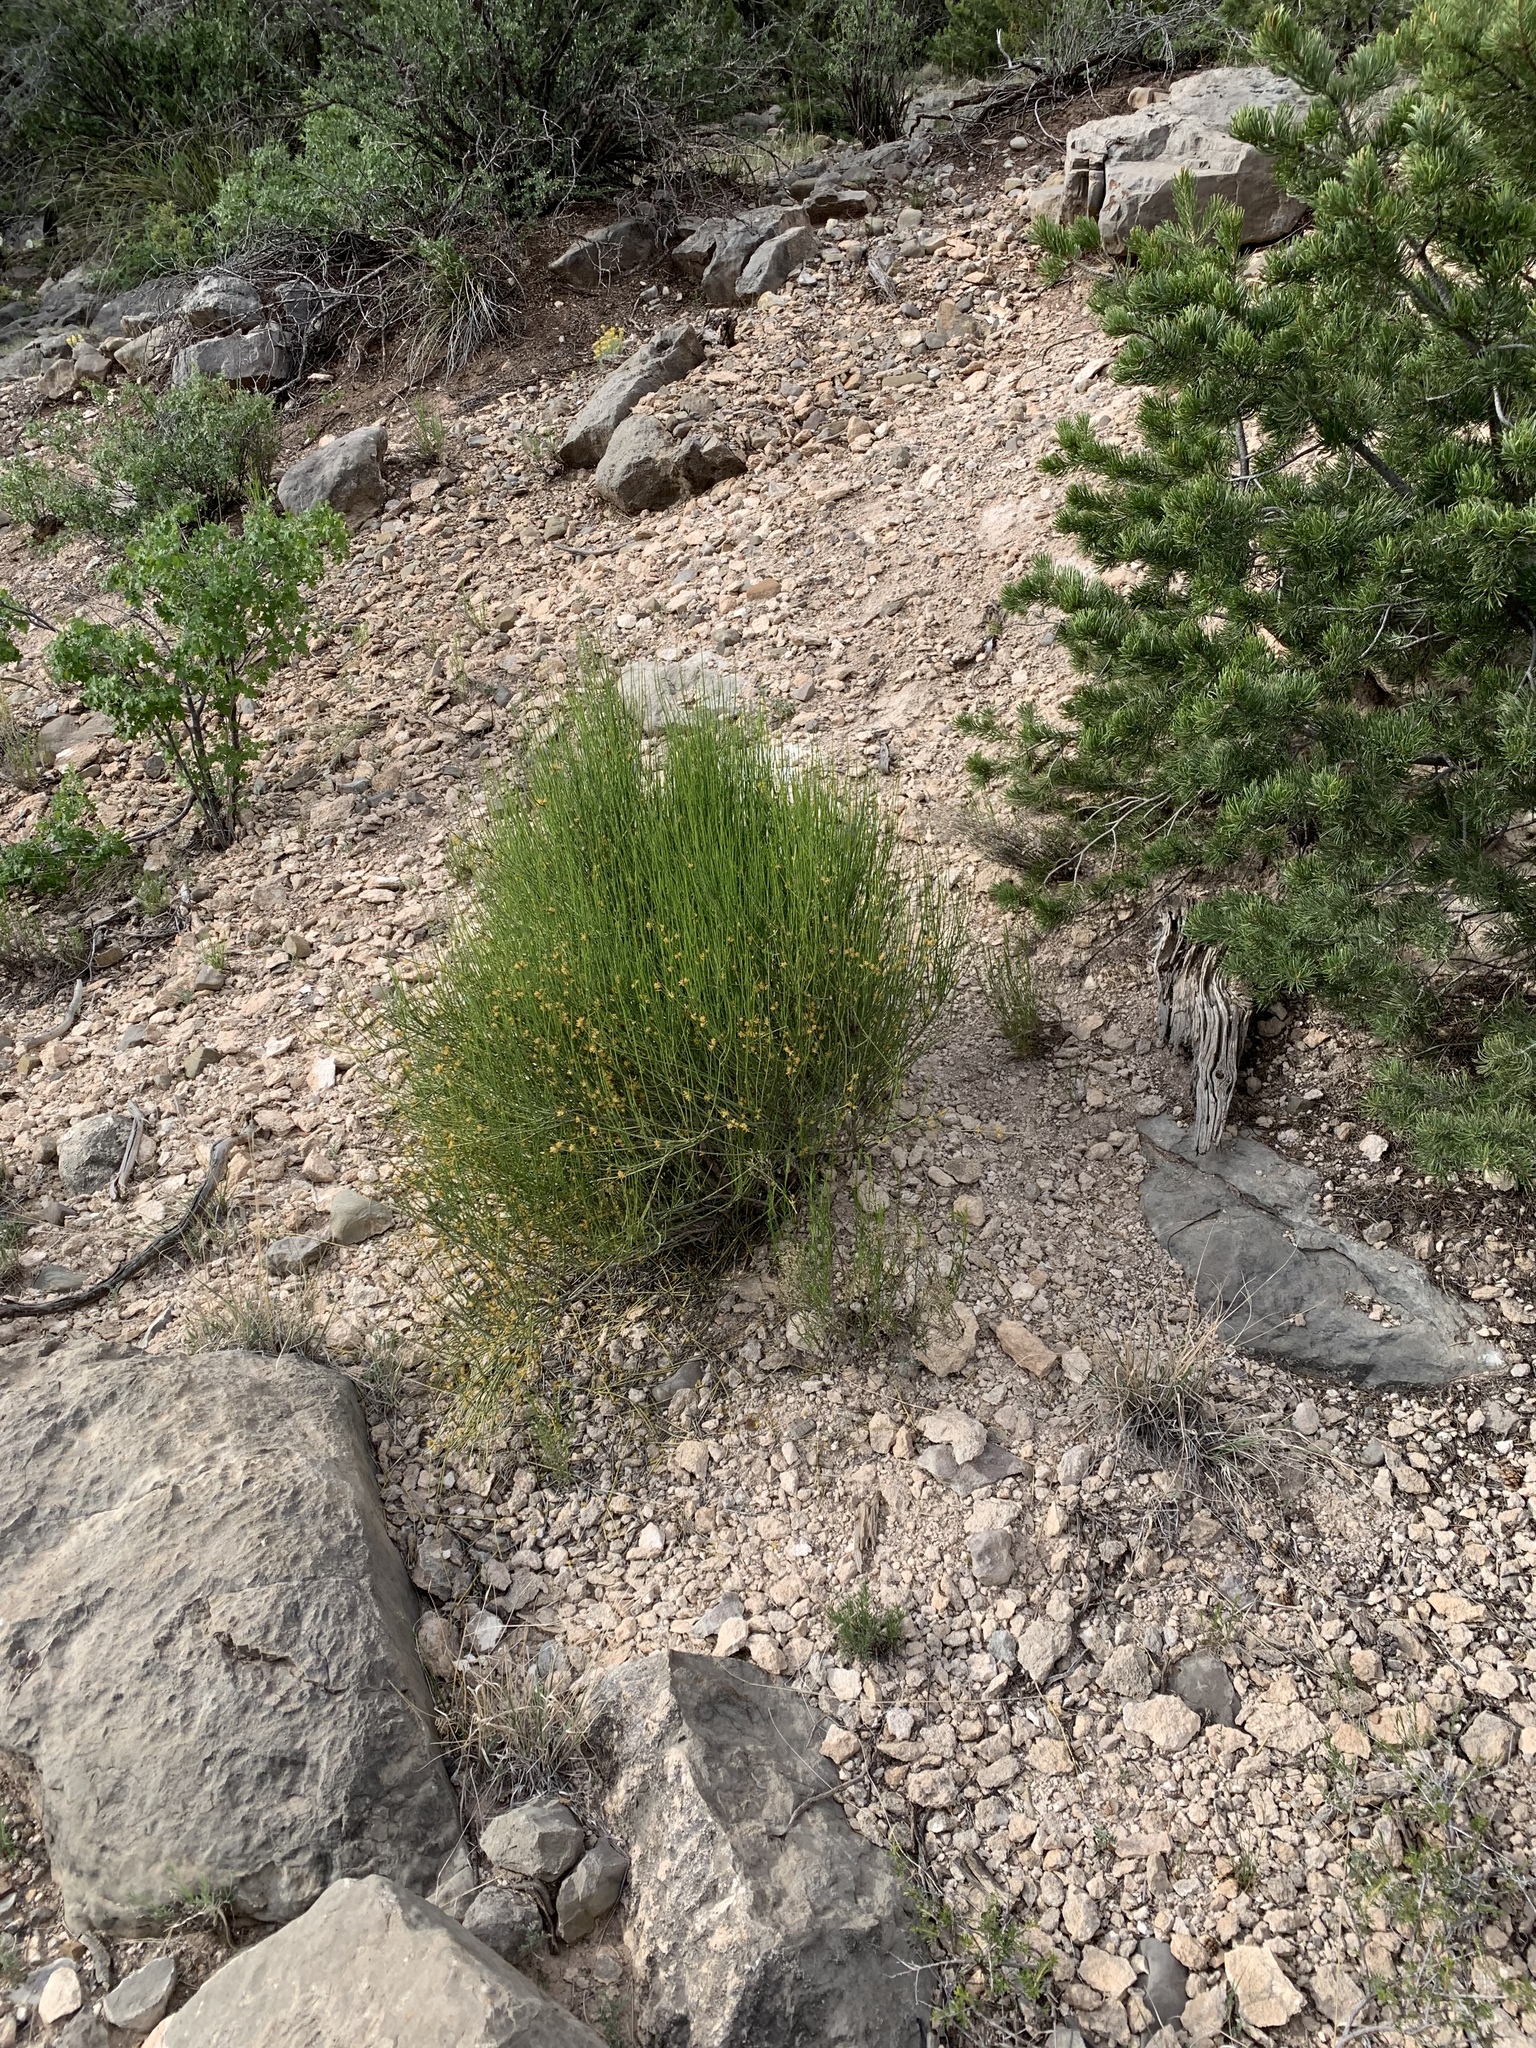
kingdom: Plantae
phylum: Tracheophyta
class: Gnetopsida
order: Ephedrales
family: Ephedraceae
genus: Ephedra
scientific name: Ephedra viridis
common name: Green ephedra
